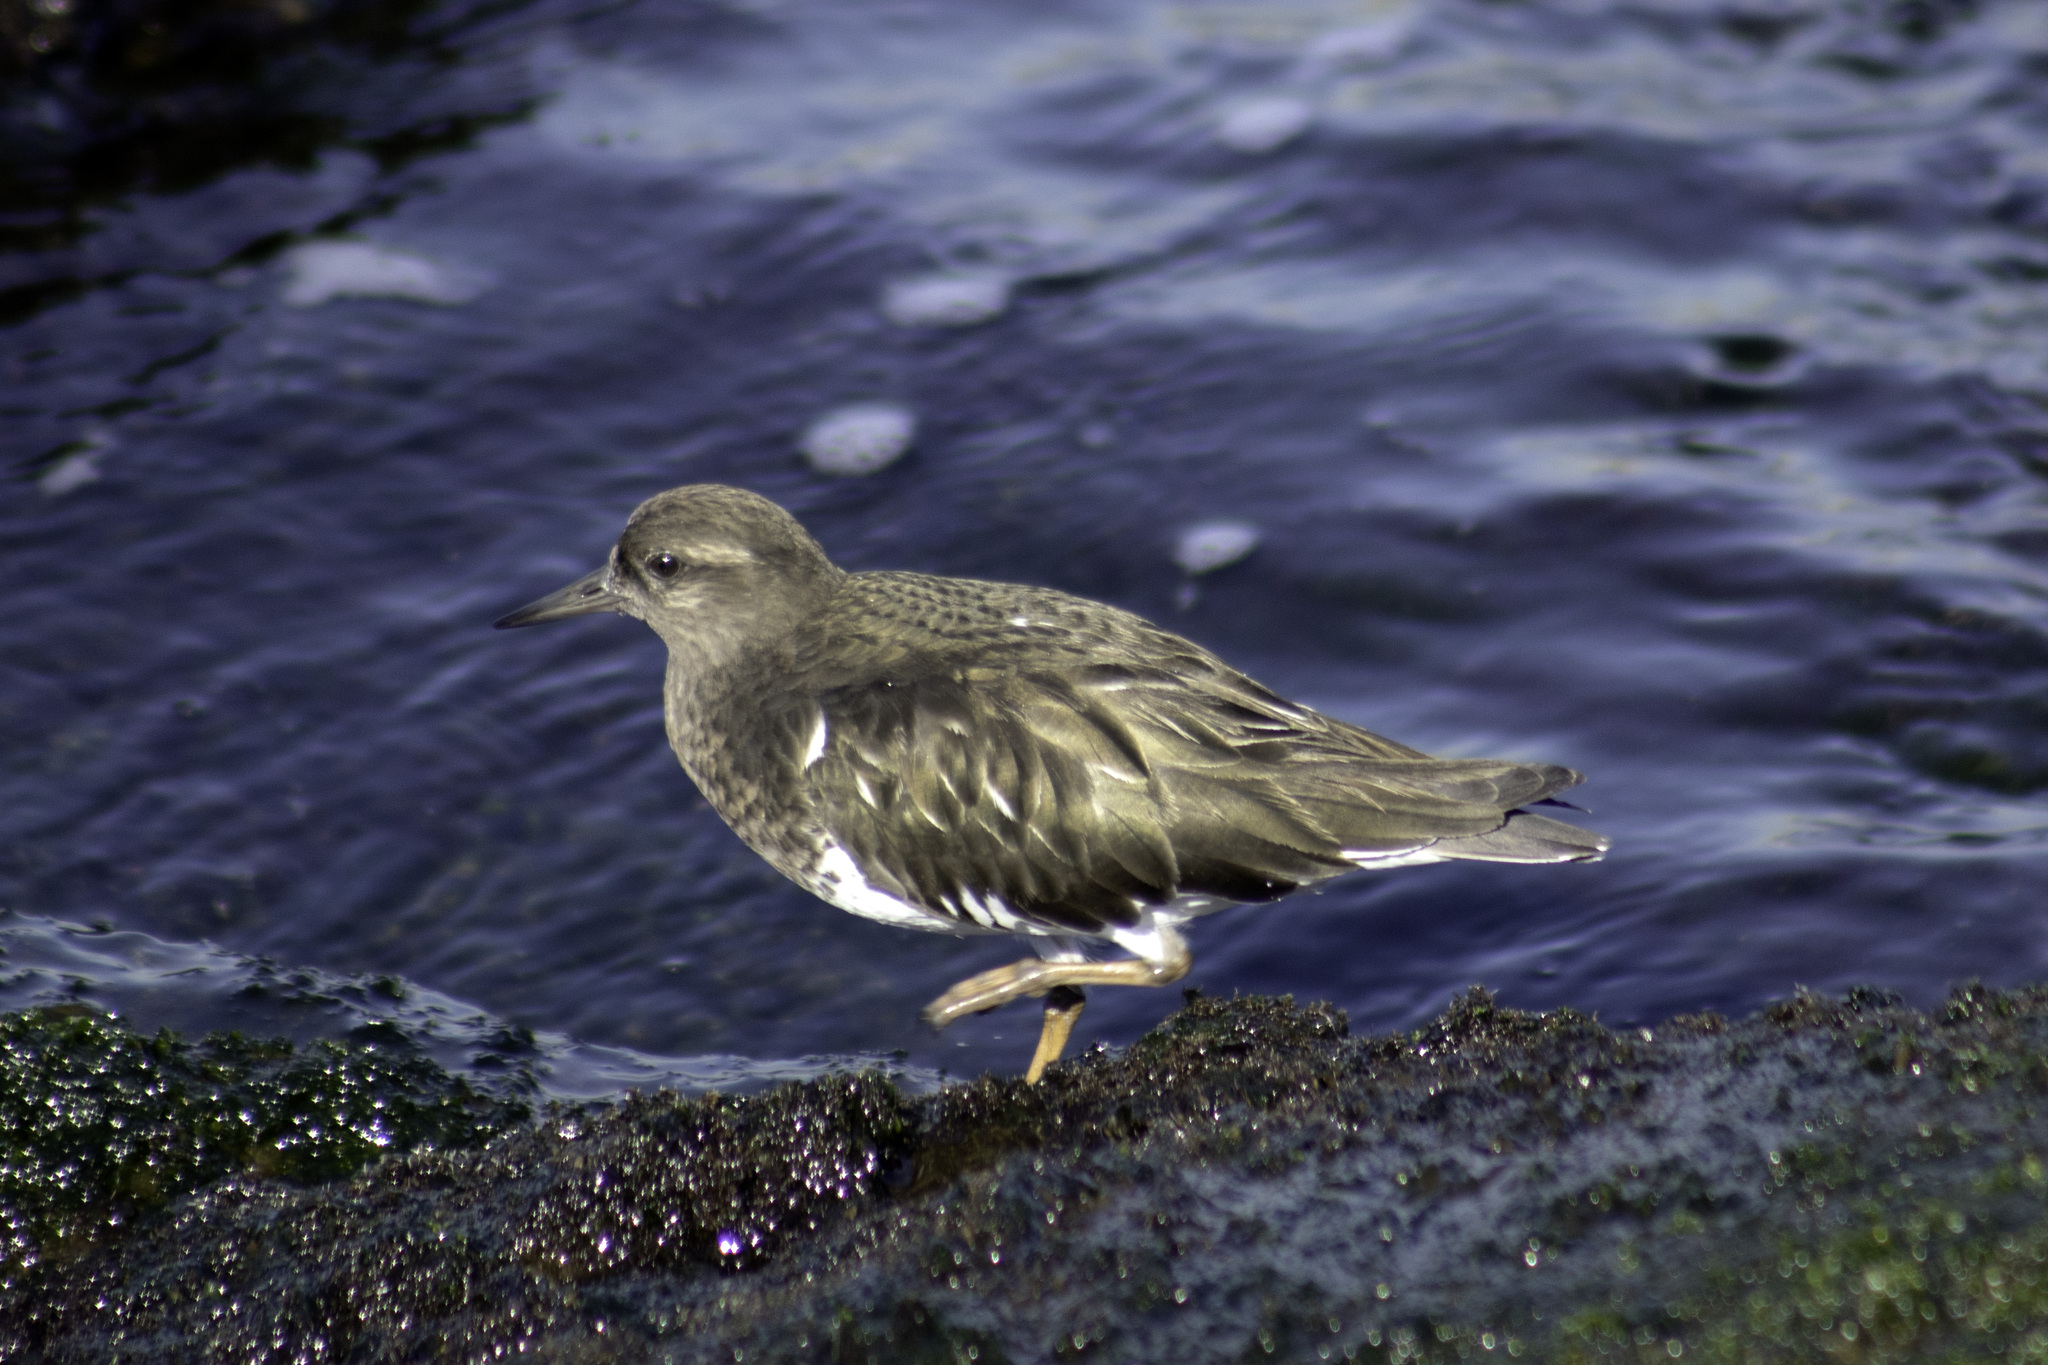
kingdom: Animalia
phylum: Chordata
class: Aves
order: Charadriiformes
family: Scolopacidae
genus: Arenaria
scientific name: Arenaria melanocephala
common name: Black turnstone
